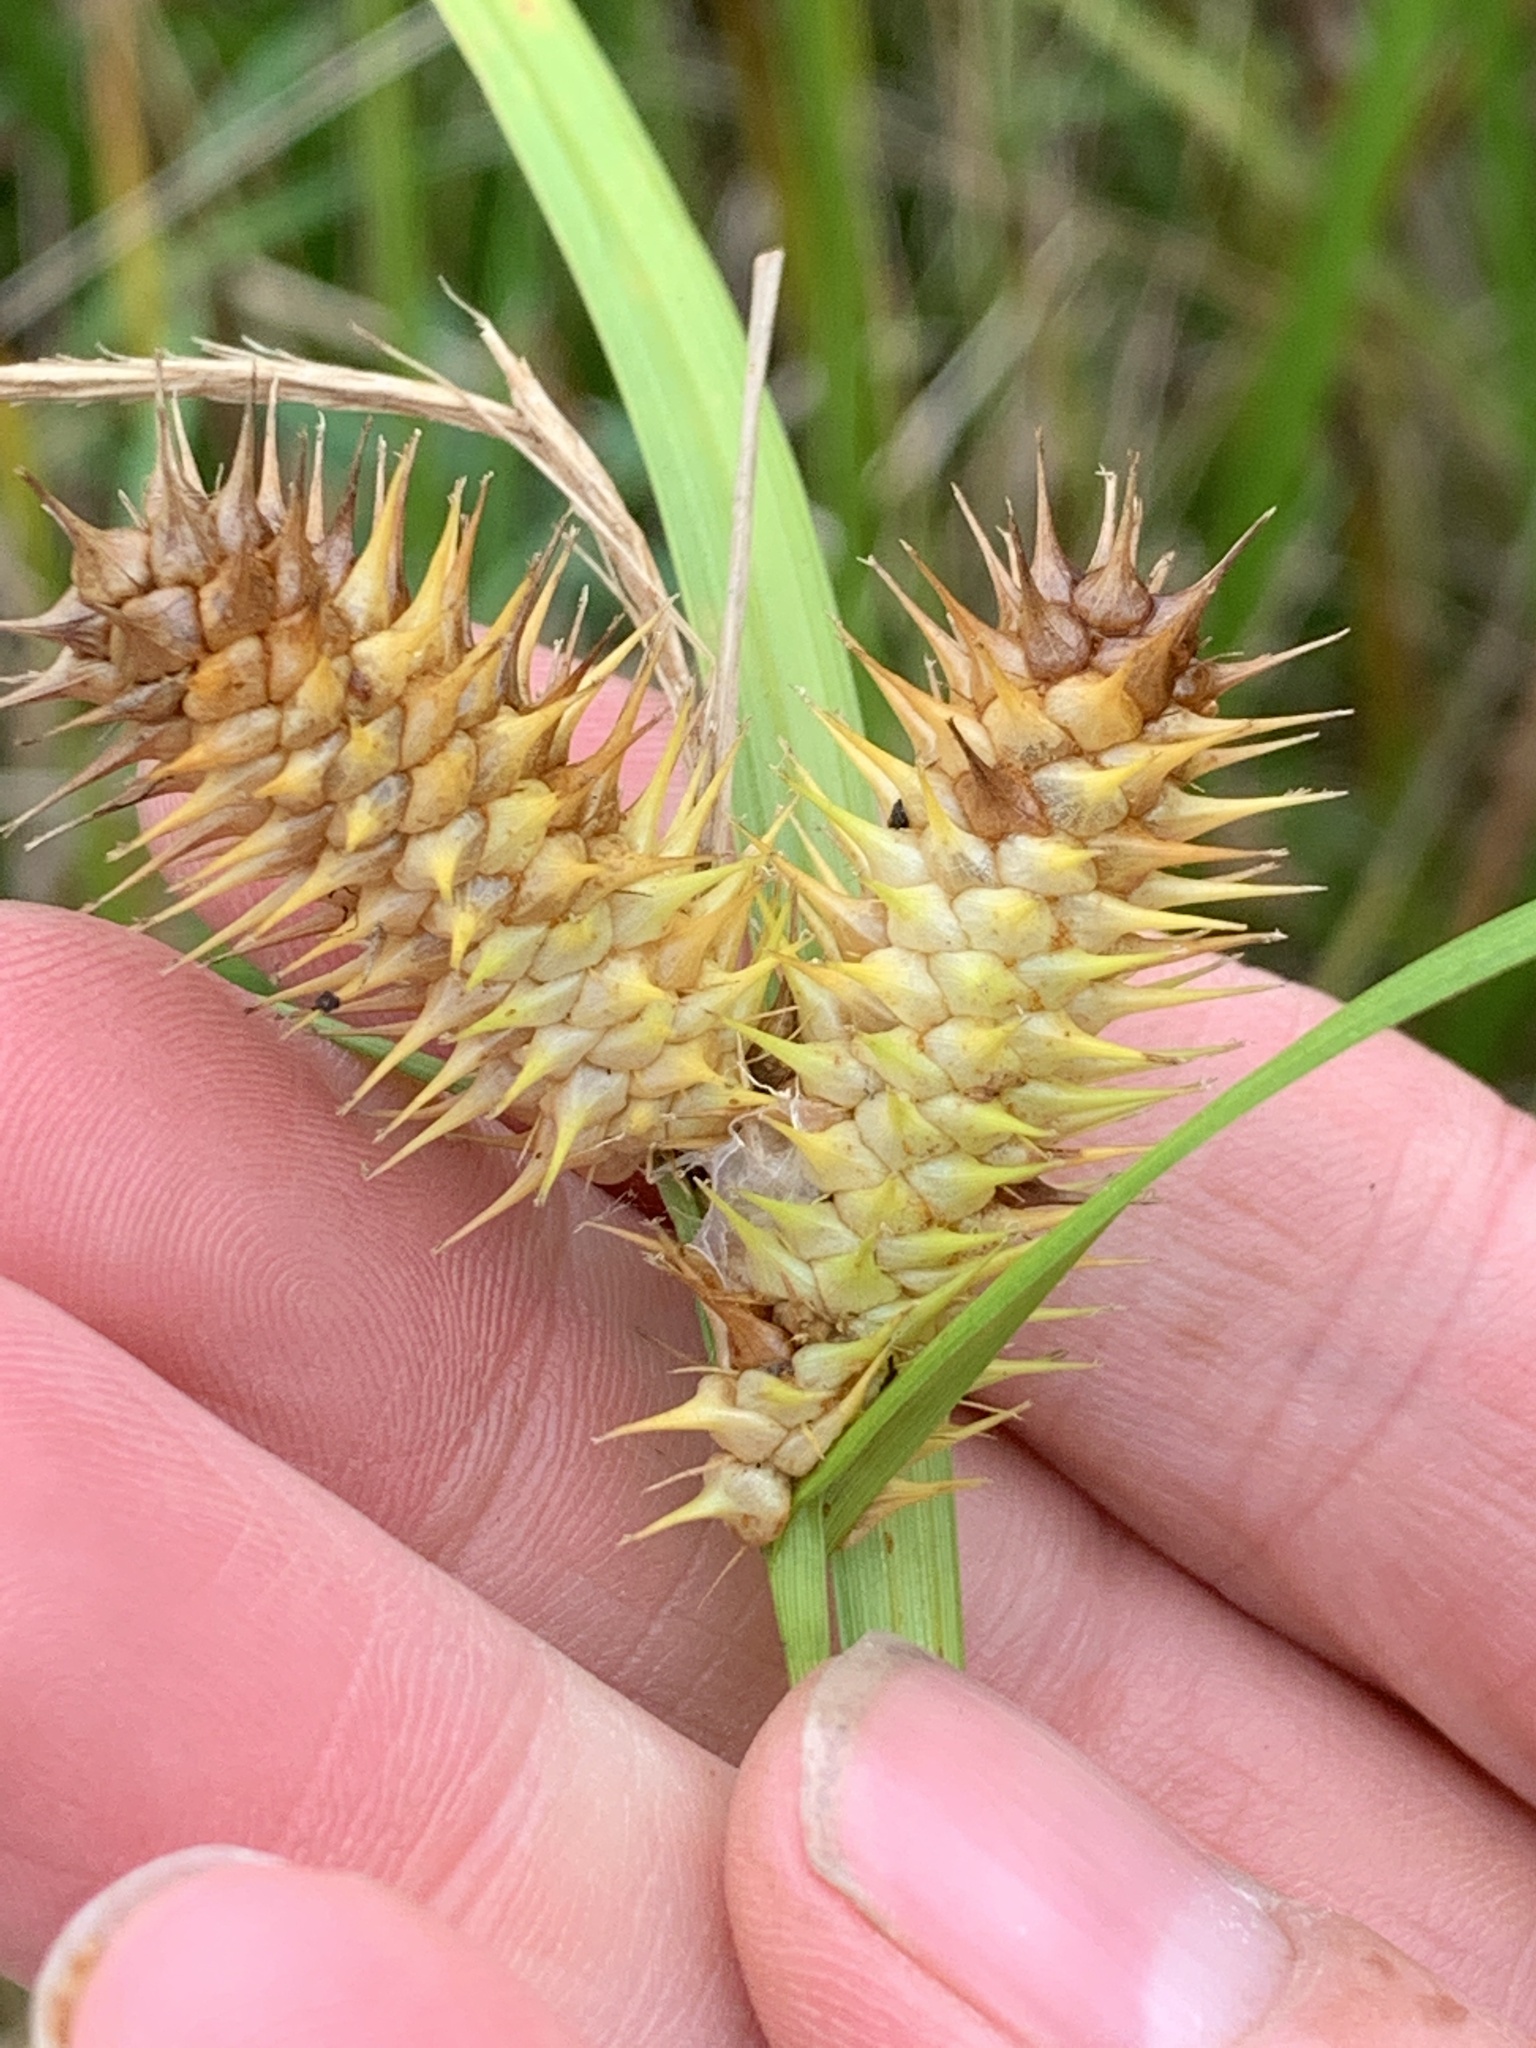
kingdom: Plantae
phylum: Tracheophyta
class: Liliopsida
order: Poales
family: Cyperaceae
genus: Carex
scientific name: Carex lurida
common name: Sallow sedge
